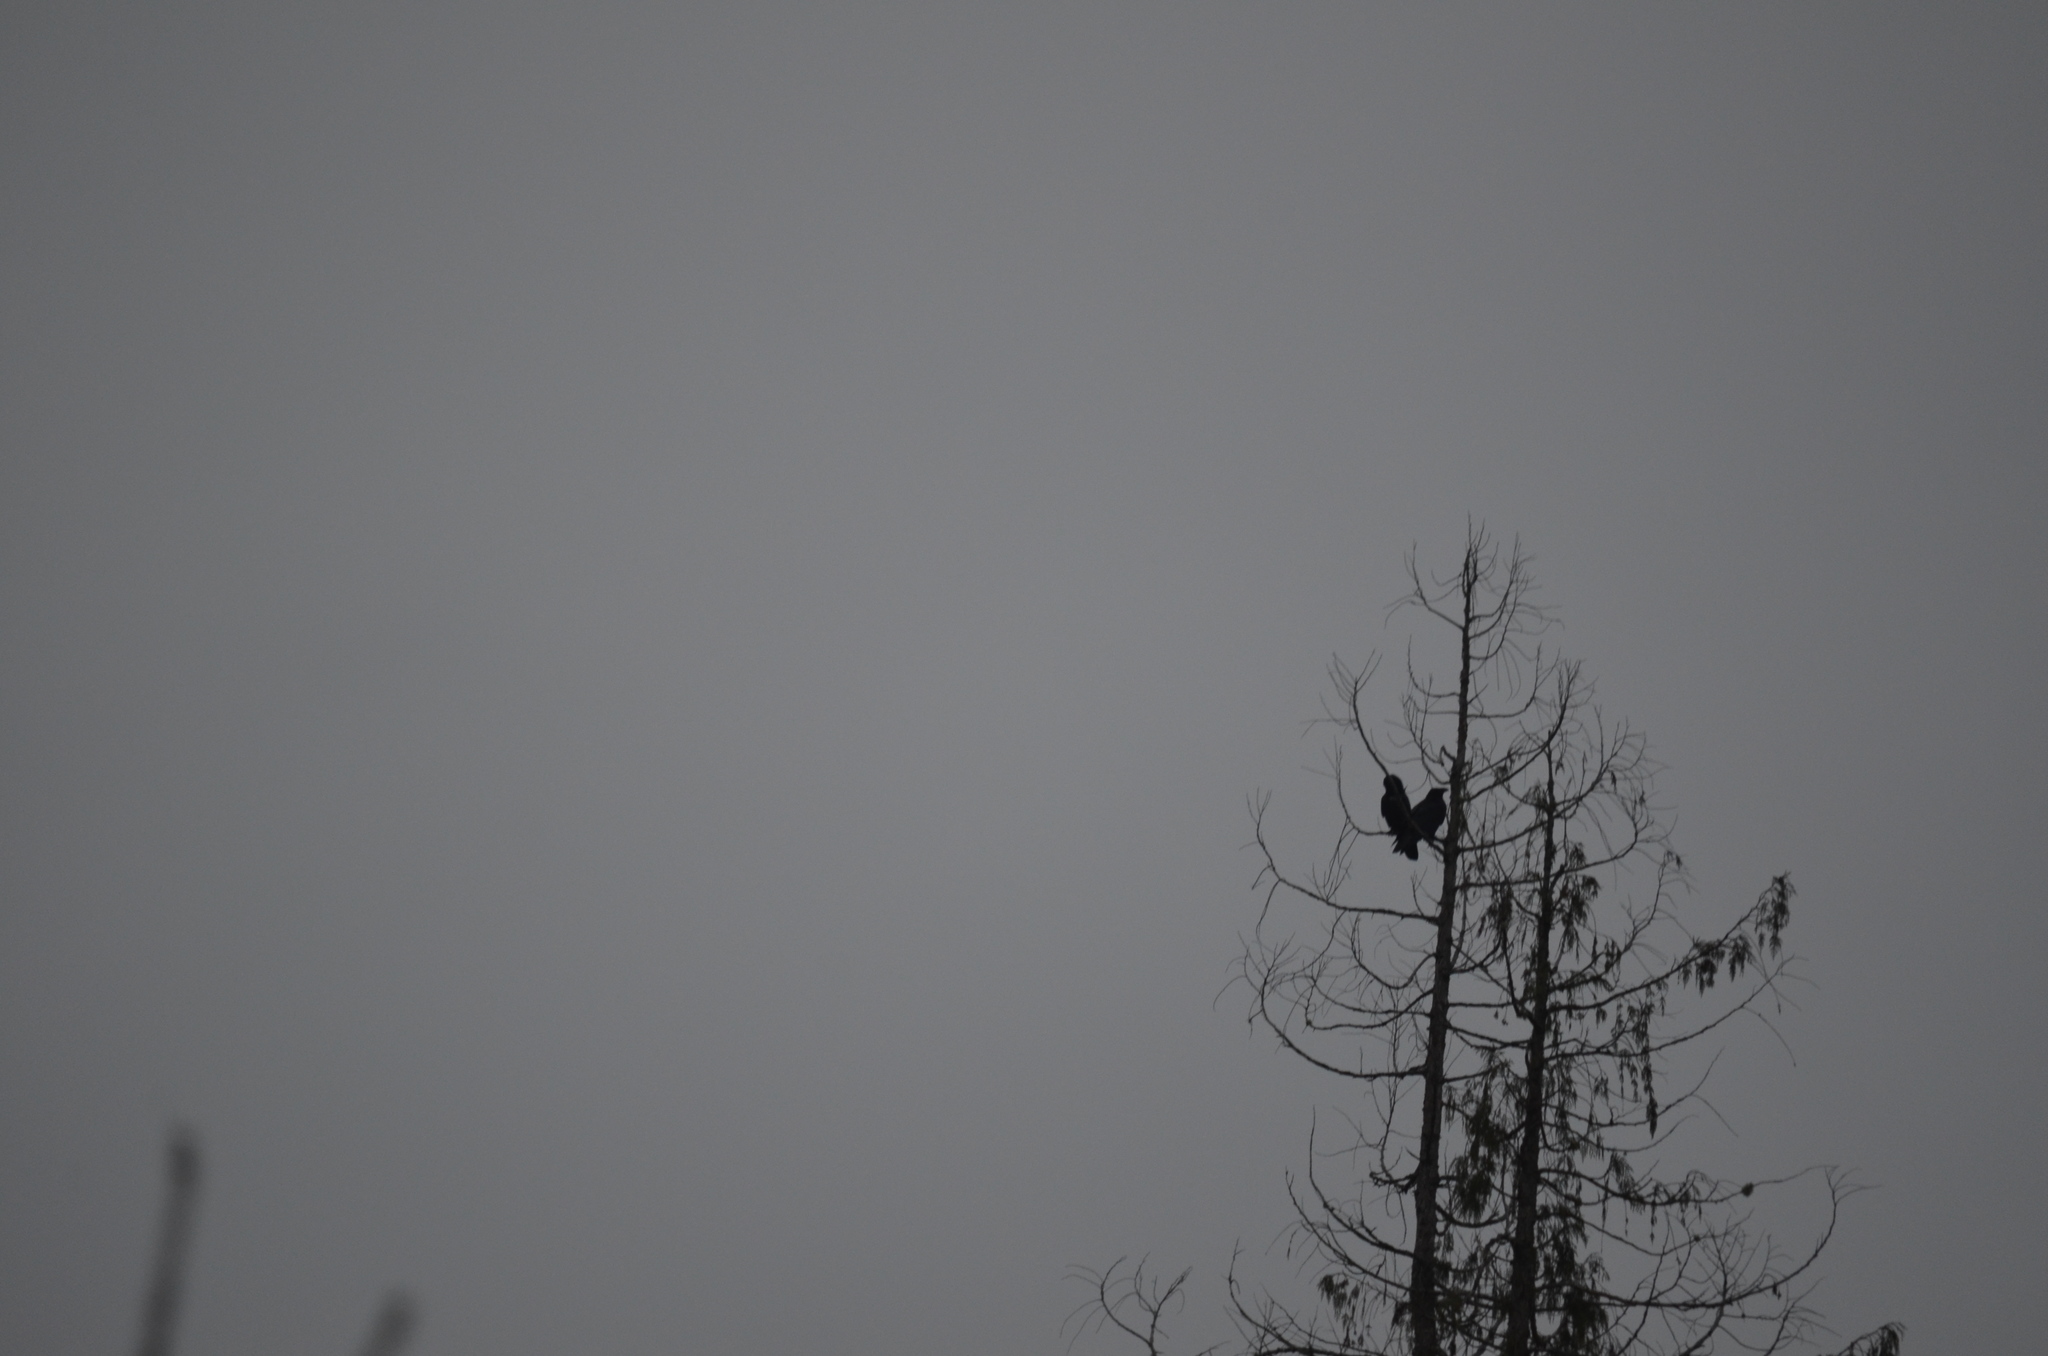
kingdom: Animalia
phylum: Chordata
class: Aves
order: Passeriformes
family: Corvidae
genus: Corvus
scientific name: Corvus corax
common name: Common raven
